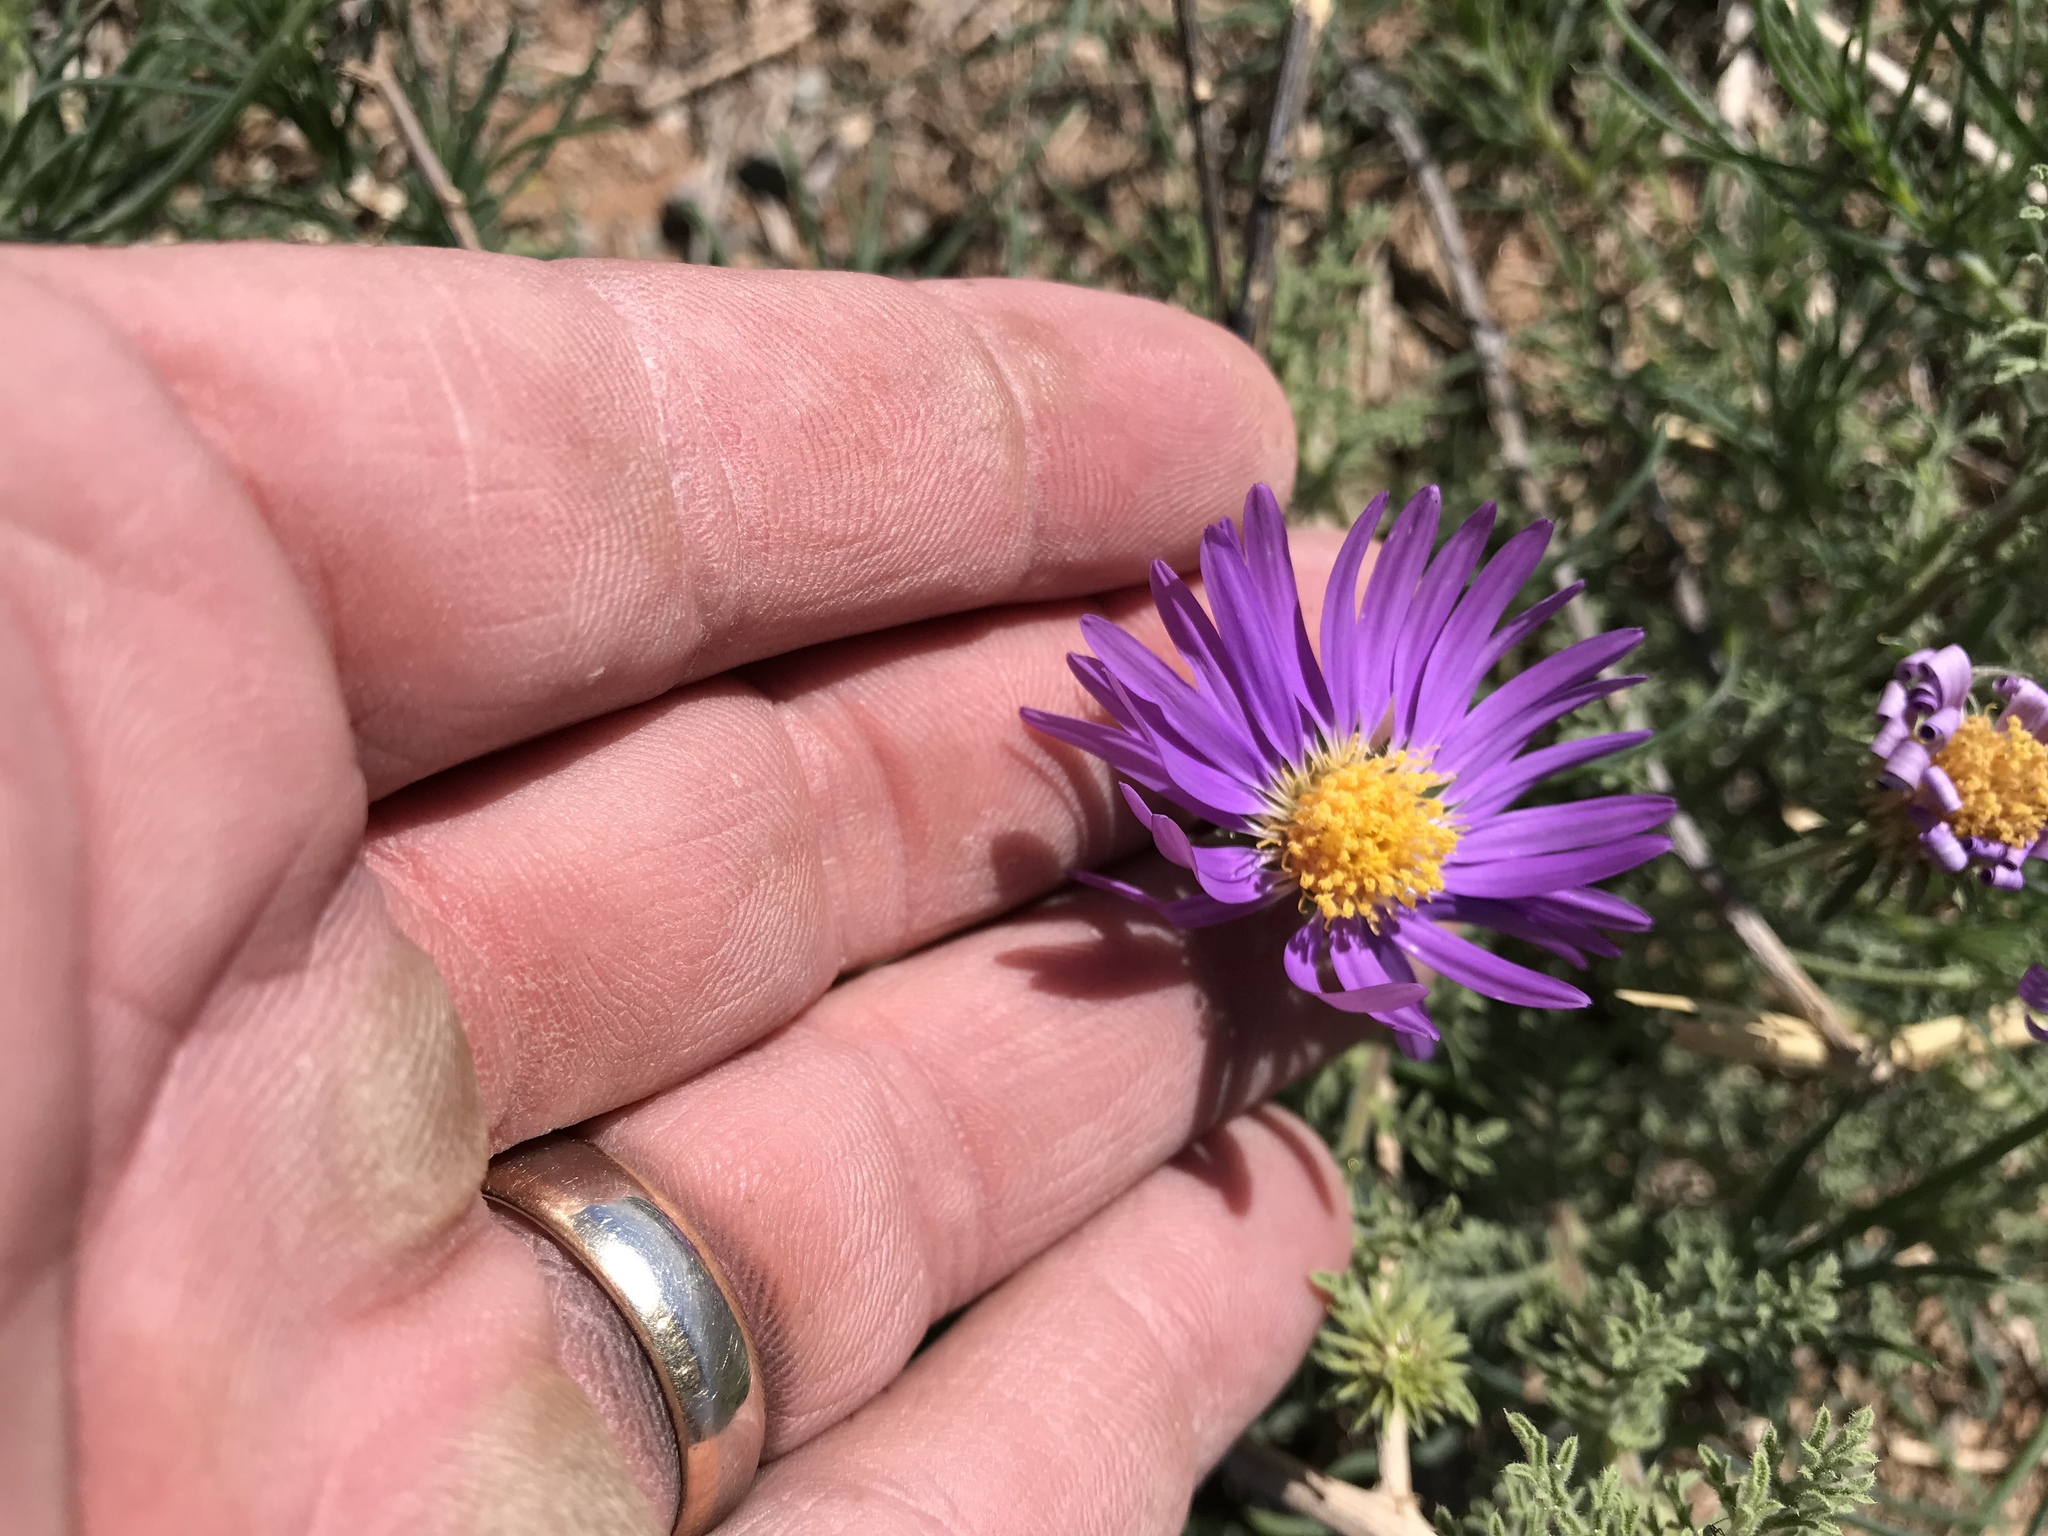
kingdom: Plantae
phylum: Tracheophyta
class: Magnoliopsida
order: Asterales
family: Asteraceae
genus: Machaeranthera
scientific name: Machaeranthera tanacetifolia
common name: Tansy-aster
